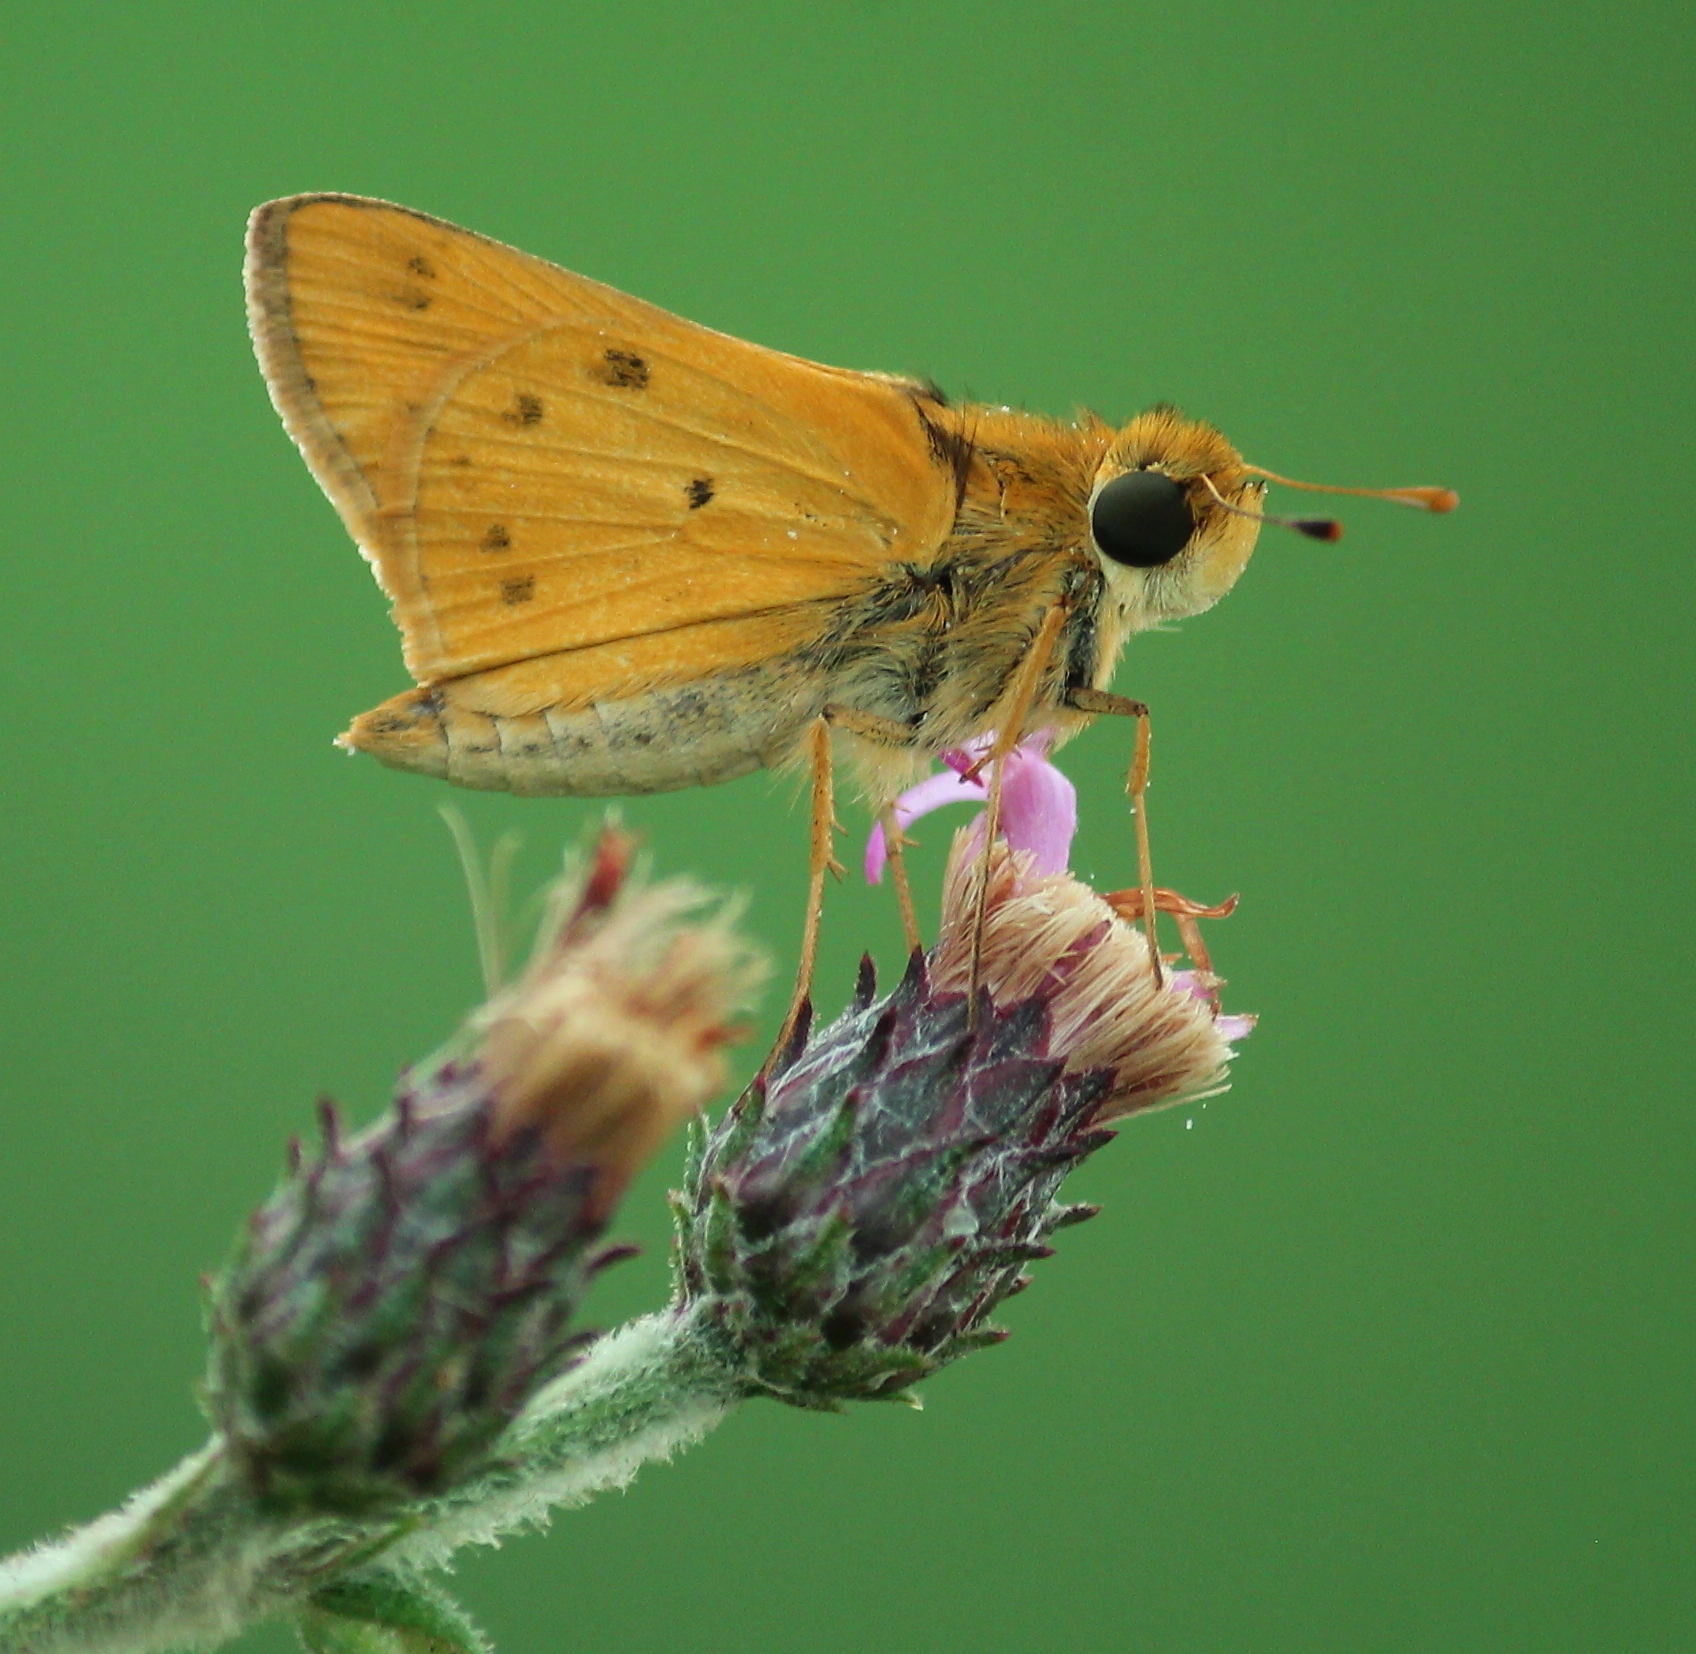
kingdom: Animalia
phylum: Arthropoda
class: Insecta
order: Lepidoptera
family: Hesperiidae
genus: Hylephila
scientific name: Hylephila phyleus
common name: Fiery skipper
